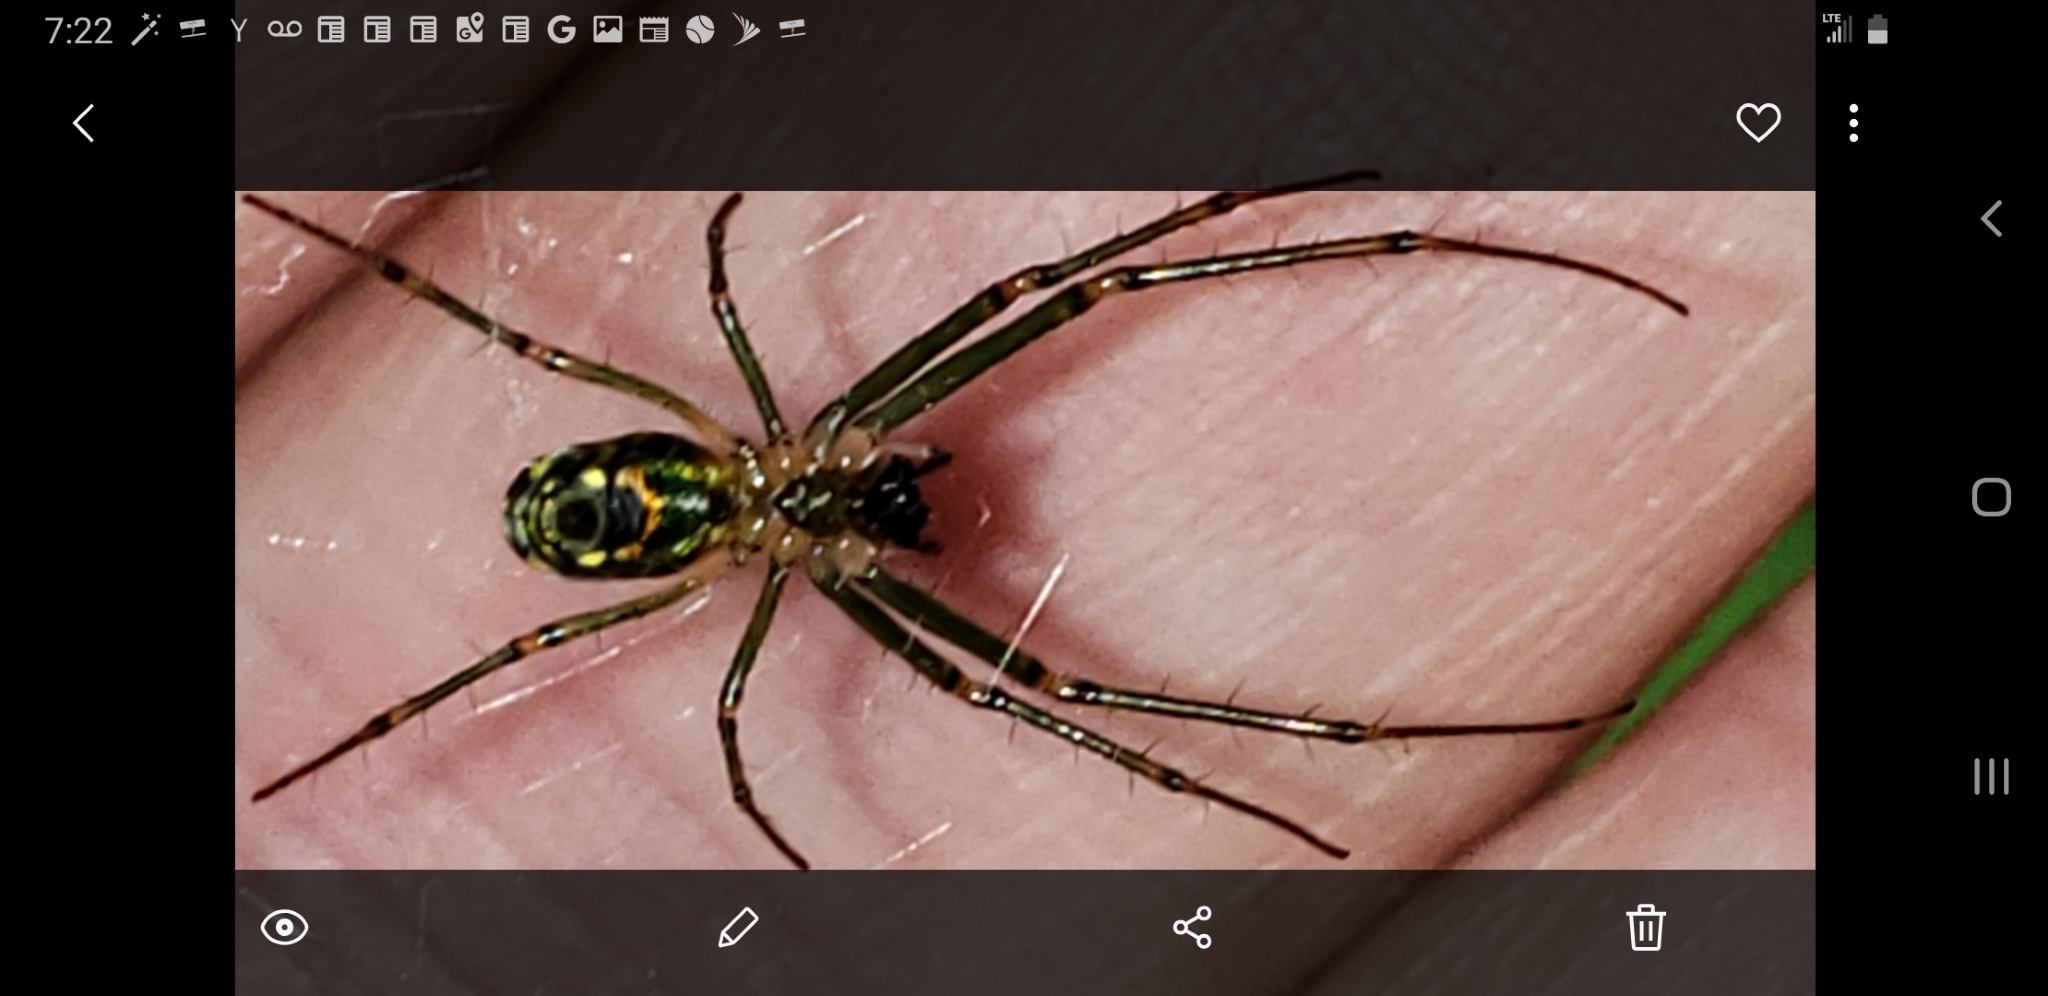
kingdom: Animalia
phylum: Arthropoda
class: Arachnida
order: Araneae
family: Tetragnathidae
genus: Leucauge
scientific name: Leucauge venusta
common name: Longjawed orb weavers
